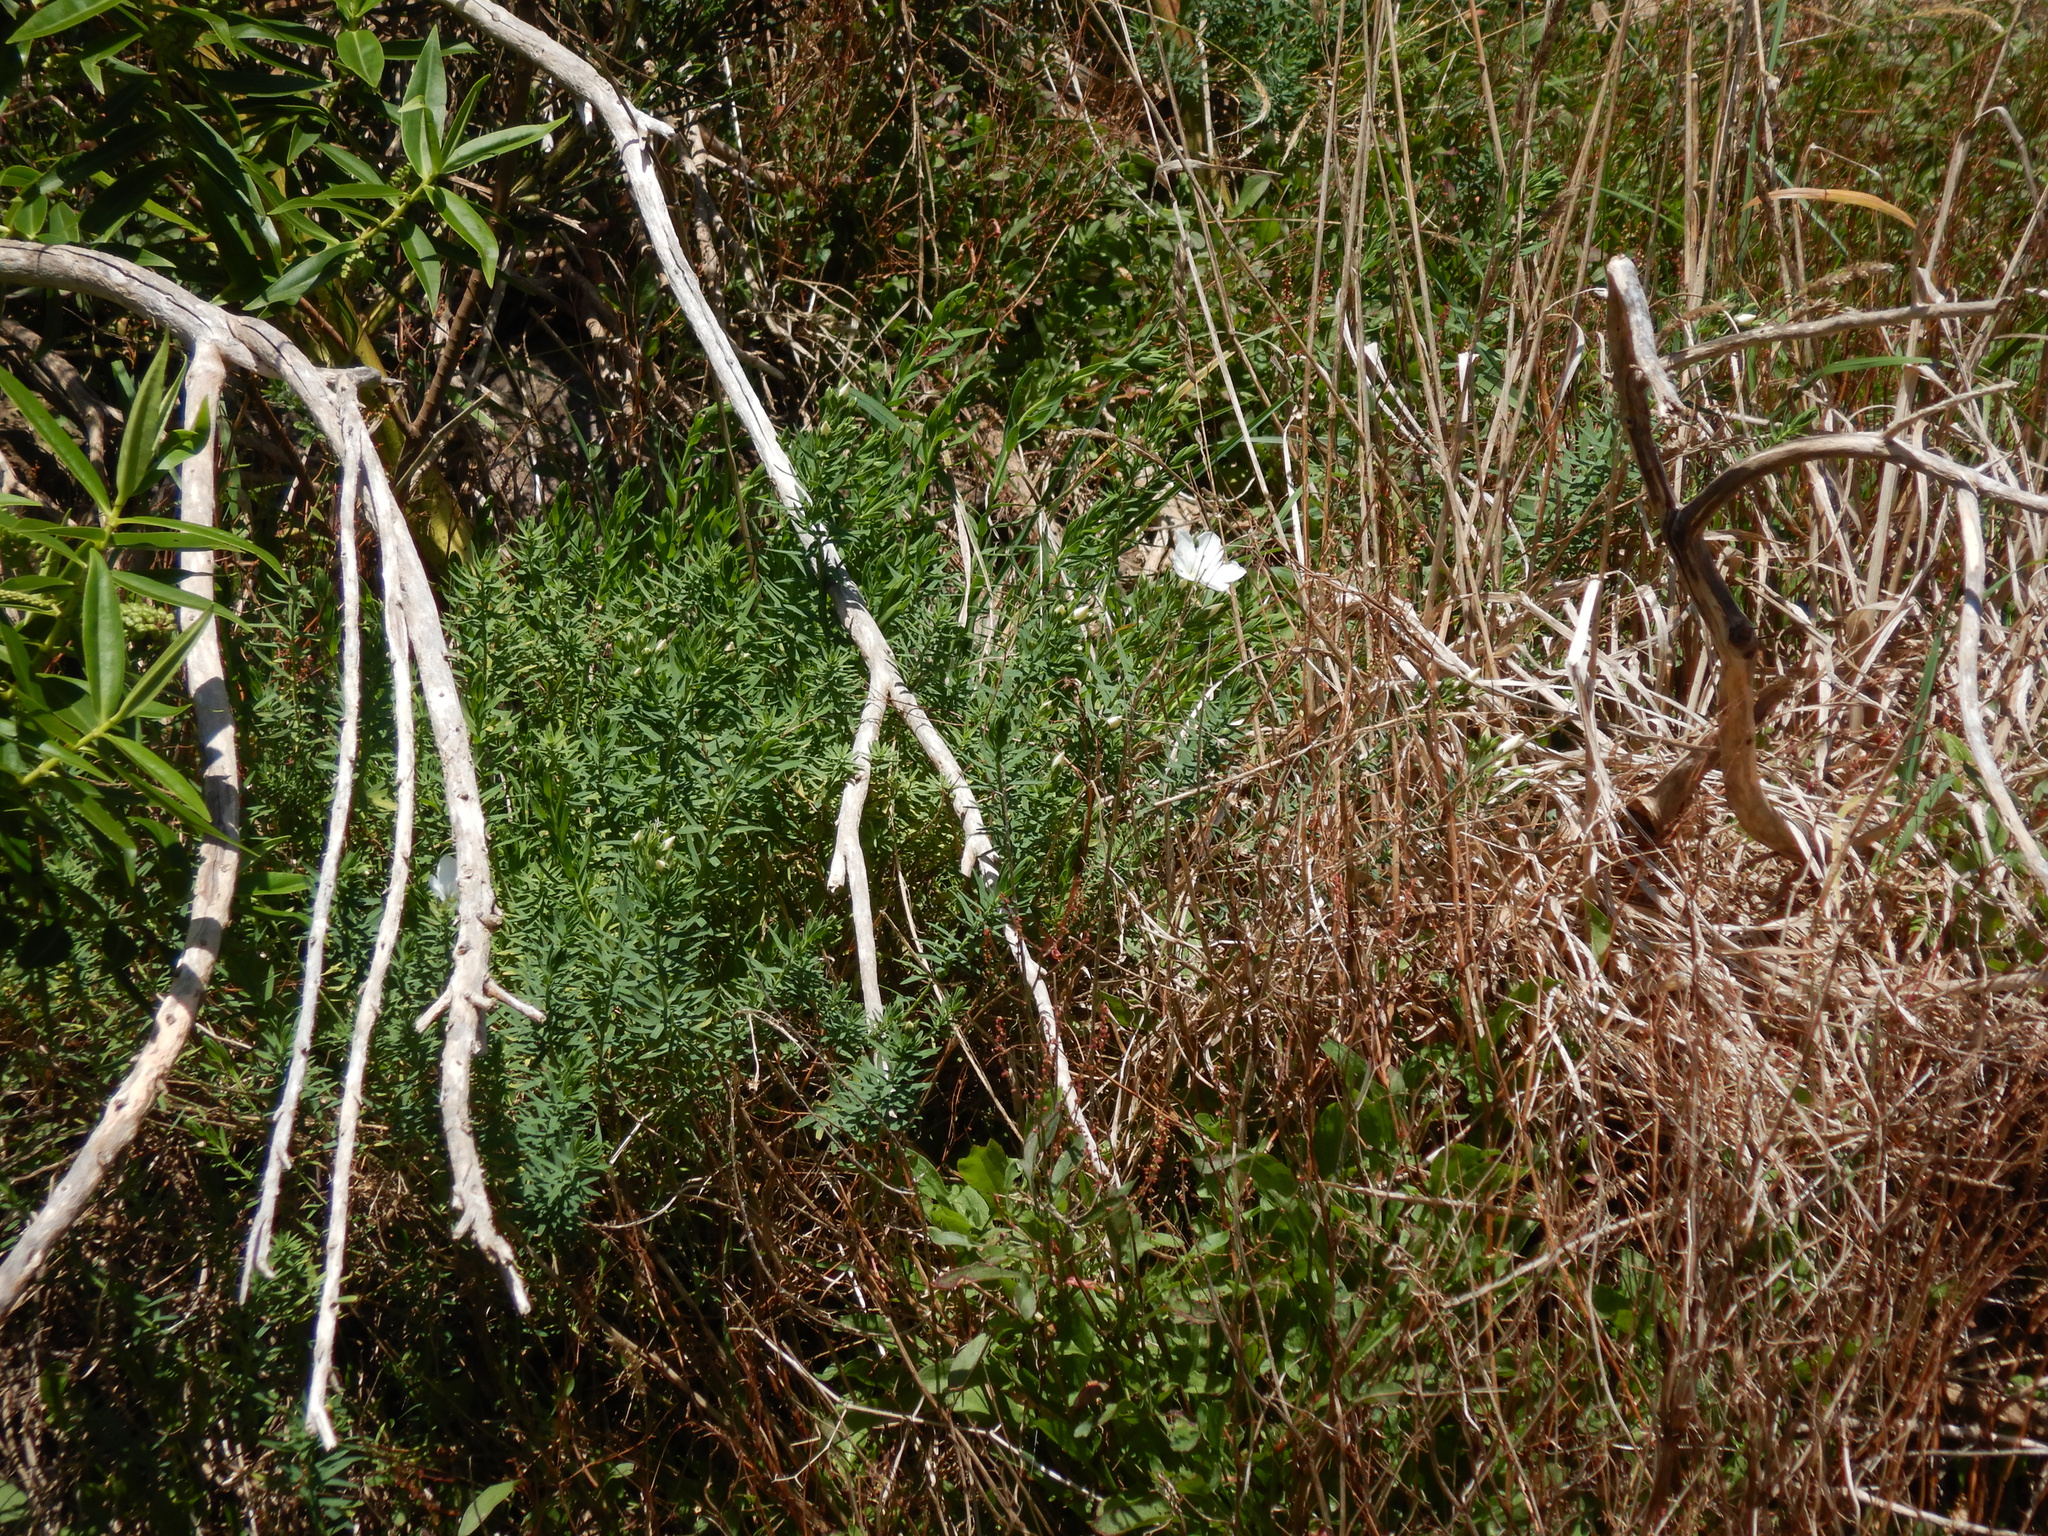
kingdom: Plantae
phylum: Tracheophyta
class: Magnoliopsida
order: Malpighiales
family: Linaceae
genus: Linum
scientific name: Linum monogynum
